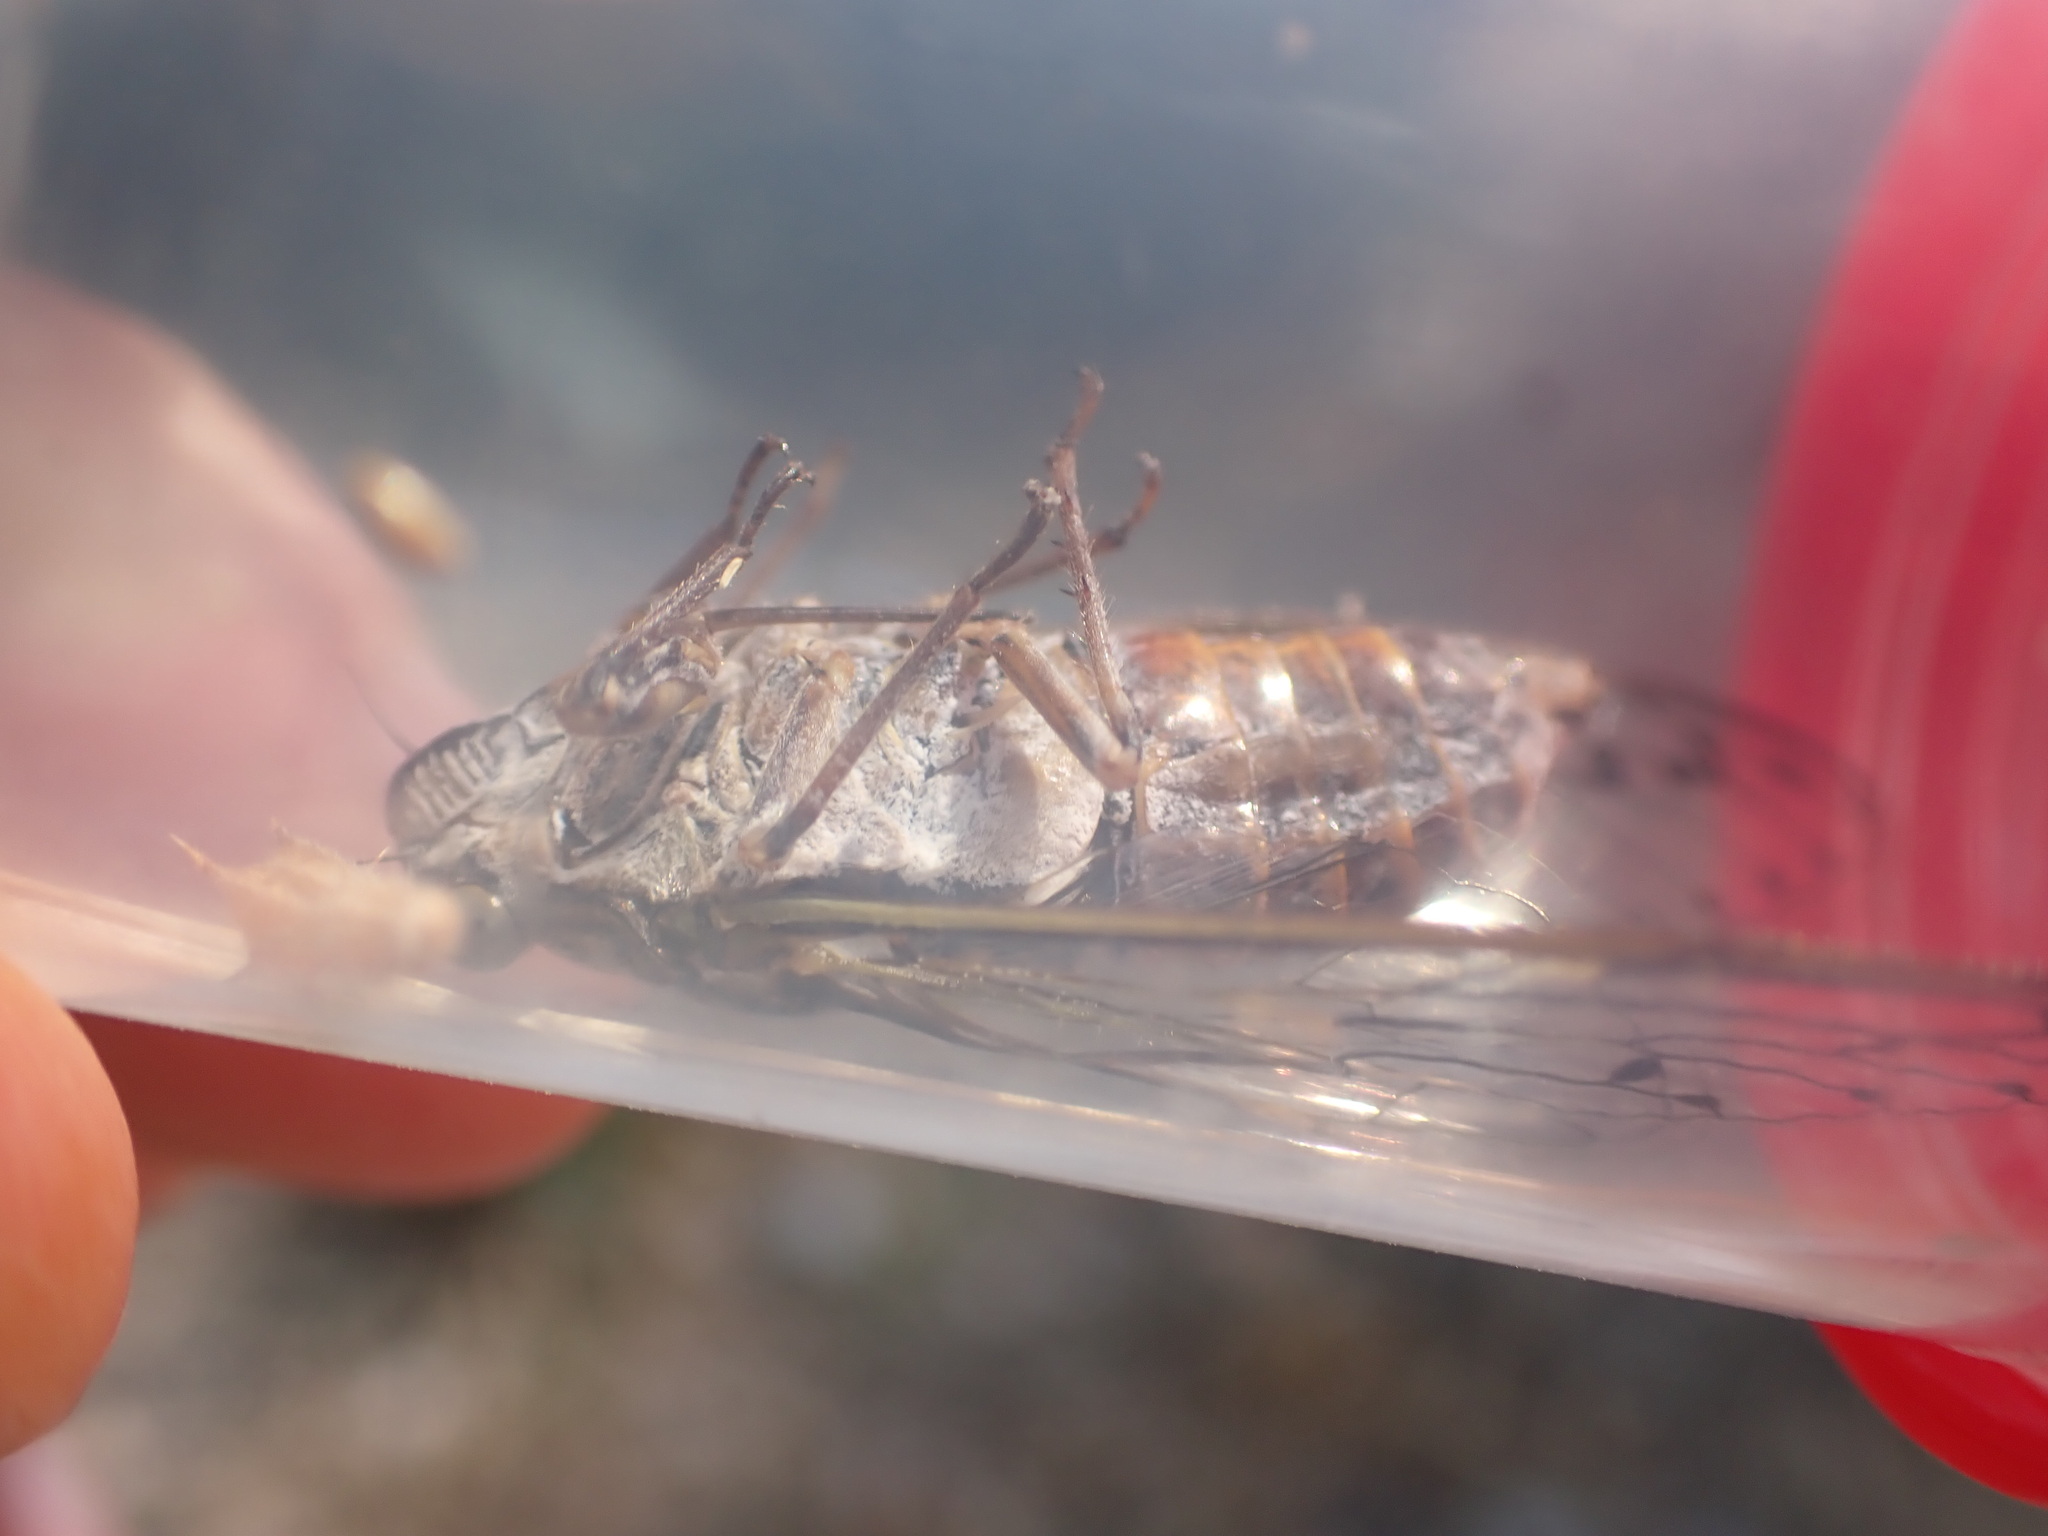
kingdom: Animalia
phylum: Arthropoda
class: Insecta
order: Hemiptera
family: Cicadidae
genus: Cicada
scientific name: Cicada orni
